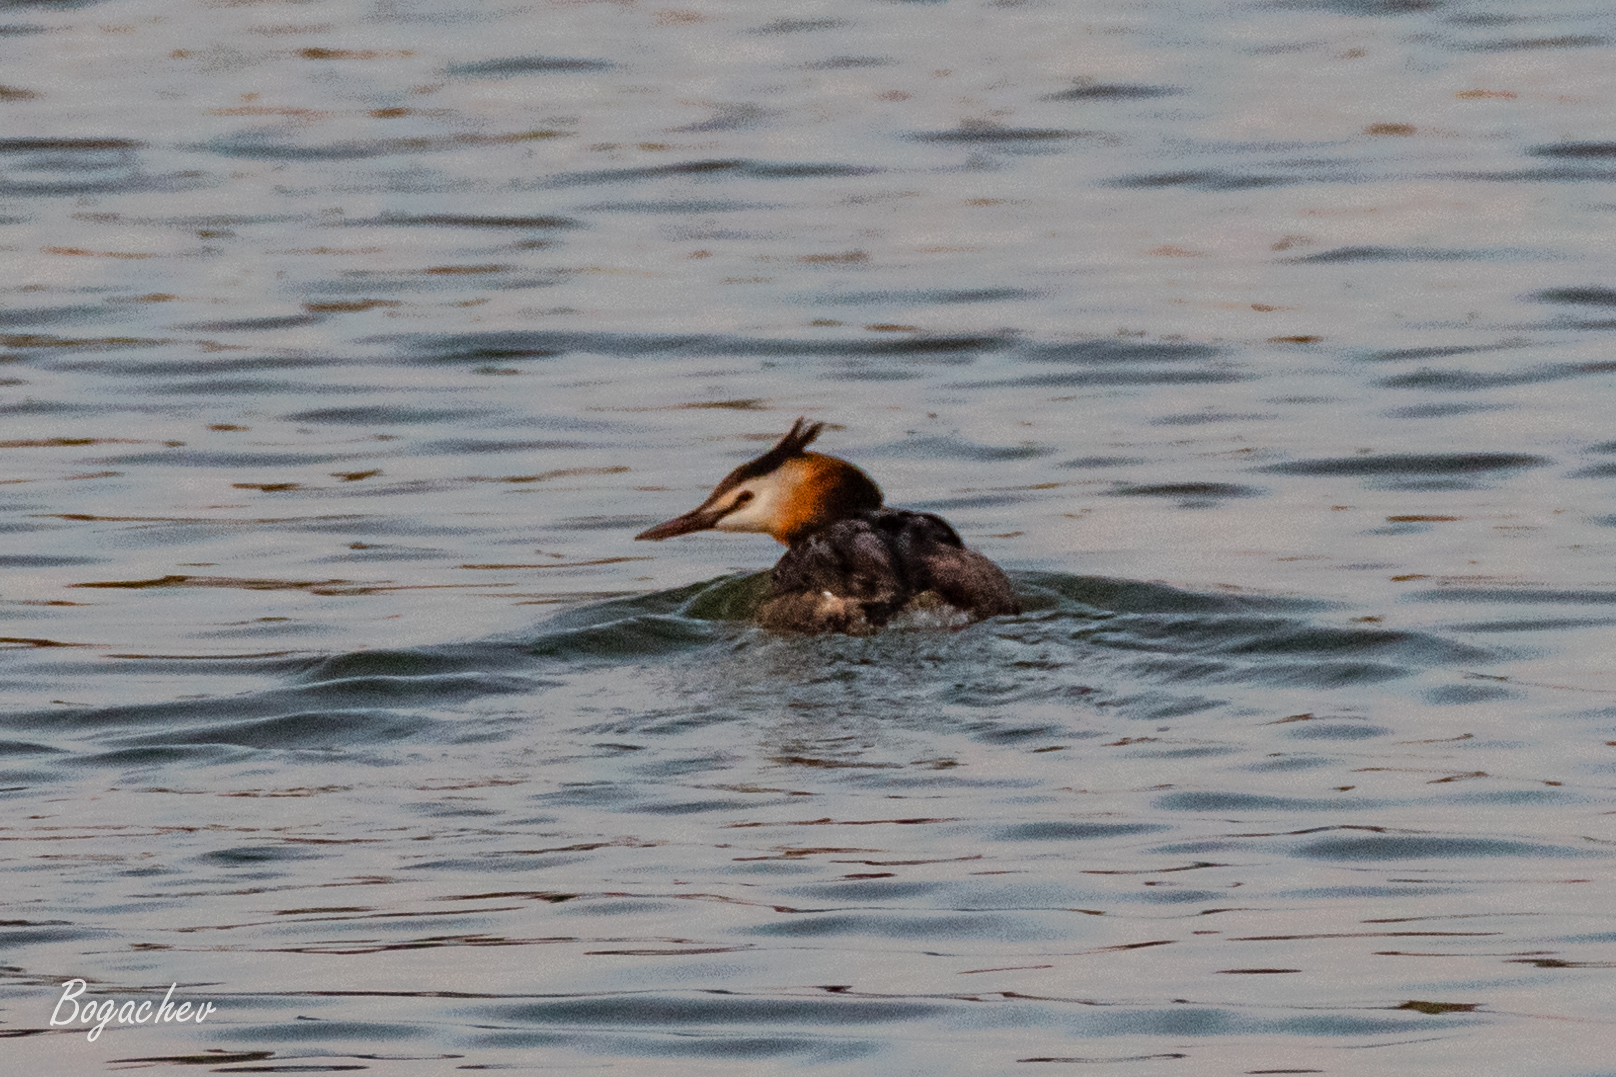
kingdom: Animalia
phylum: Chordata
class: Aves
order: Podicipediformes
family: Podicipedidae
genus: Podiceps
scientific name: Podiceps cristatus
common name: Great crested grebe
